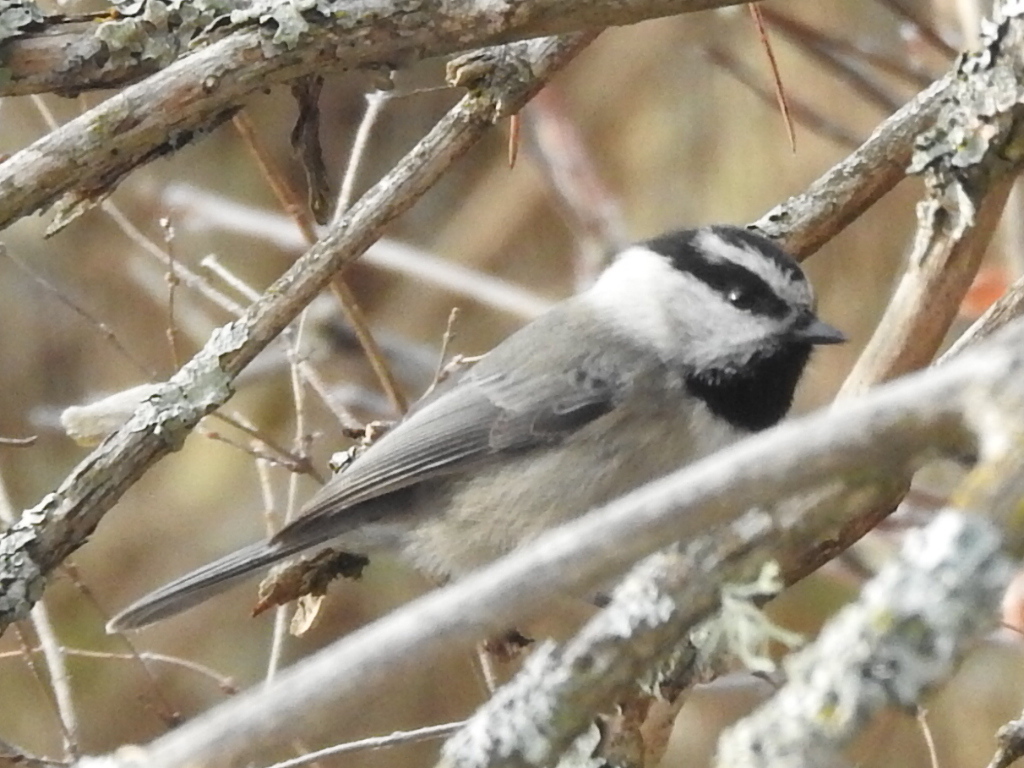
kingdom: Animalia
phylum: Chordata
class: Aves
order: Passeriformes
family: Paridae
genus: Poecile
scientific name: Poecile gambeli
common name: Mountain chickadee
